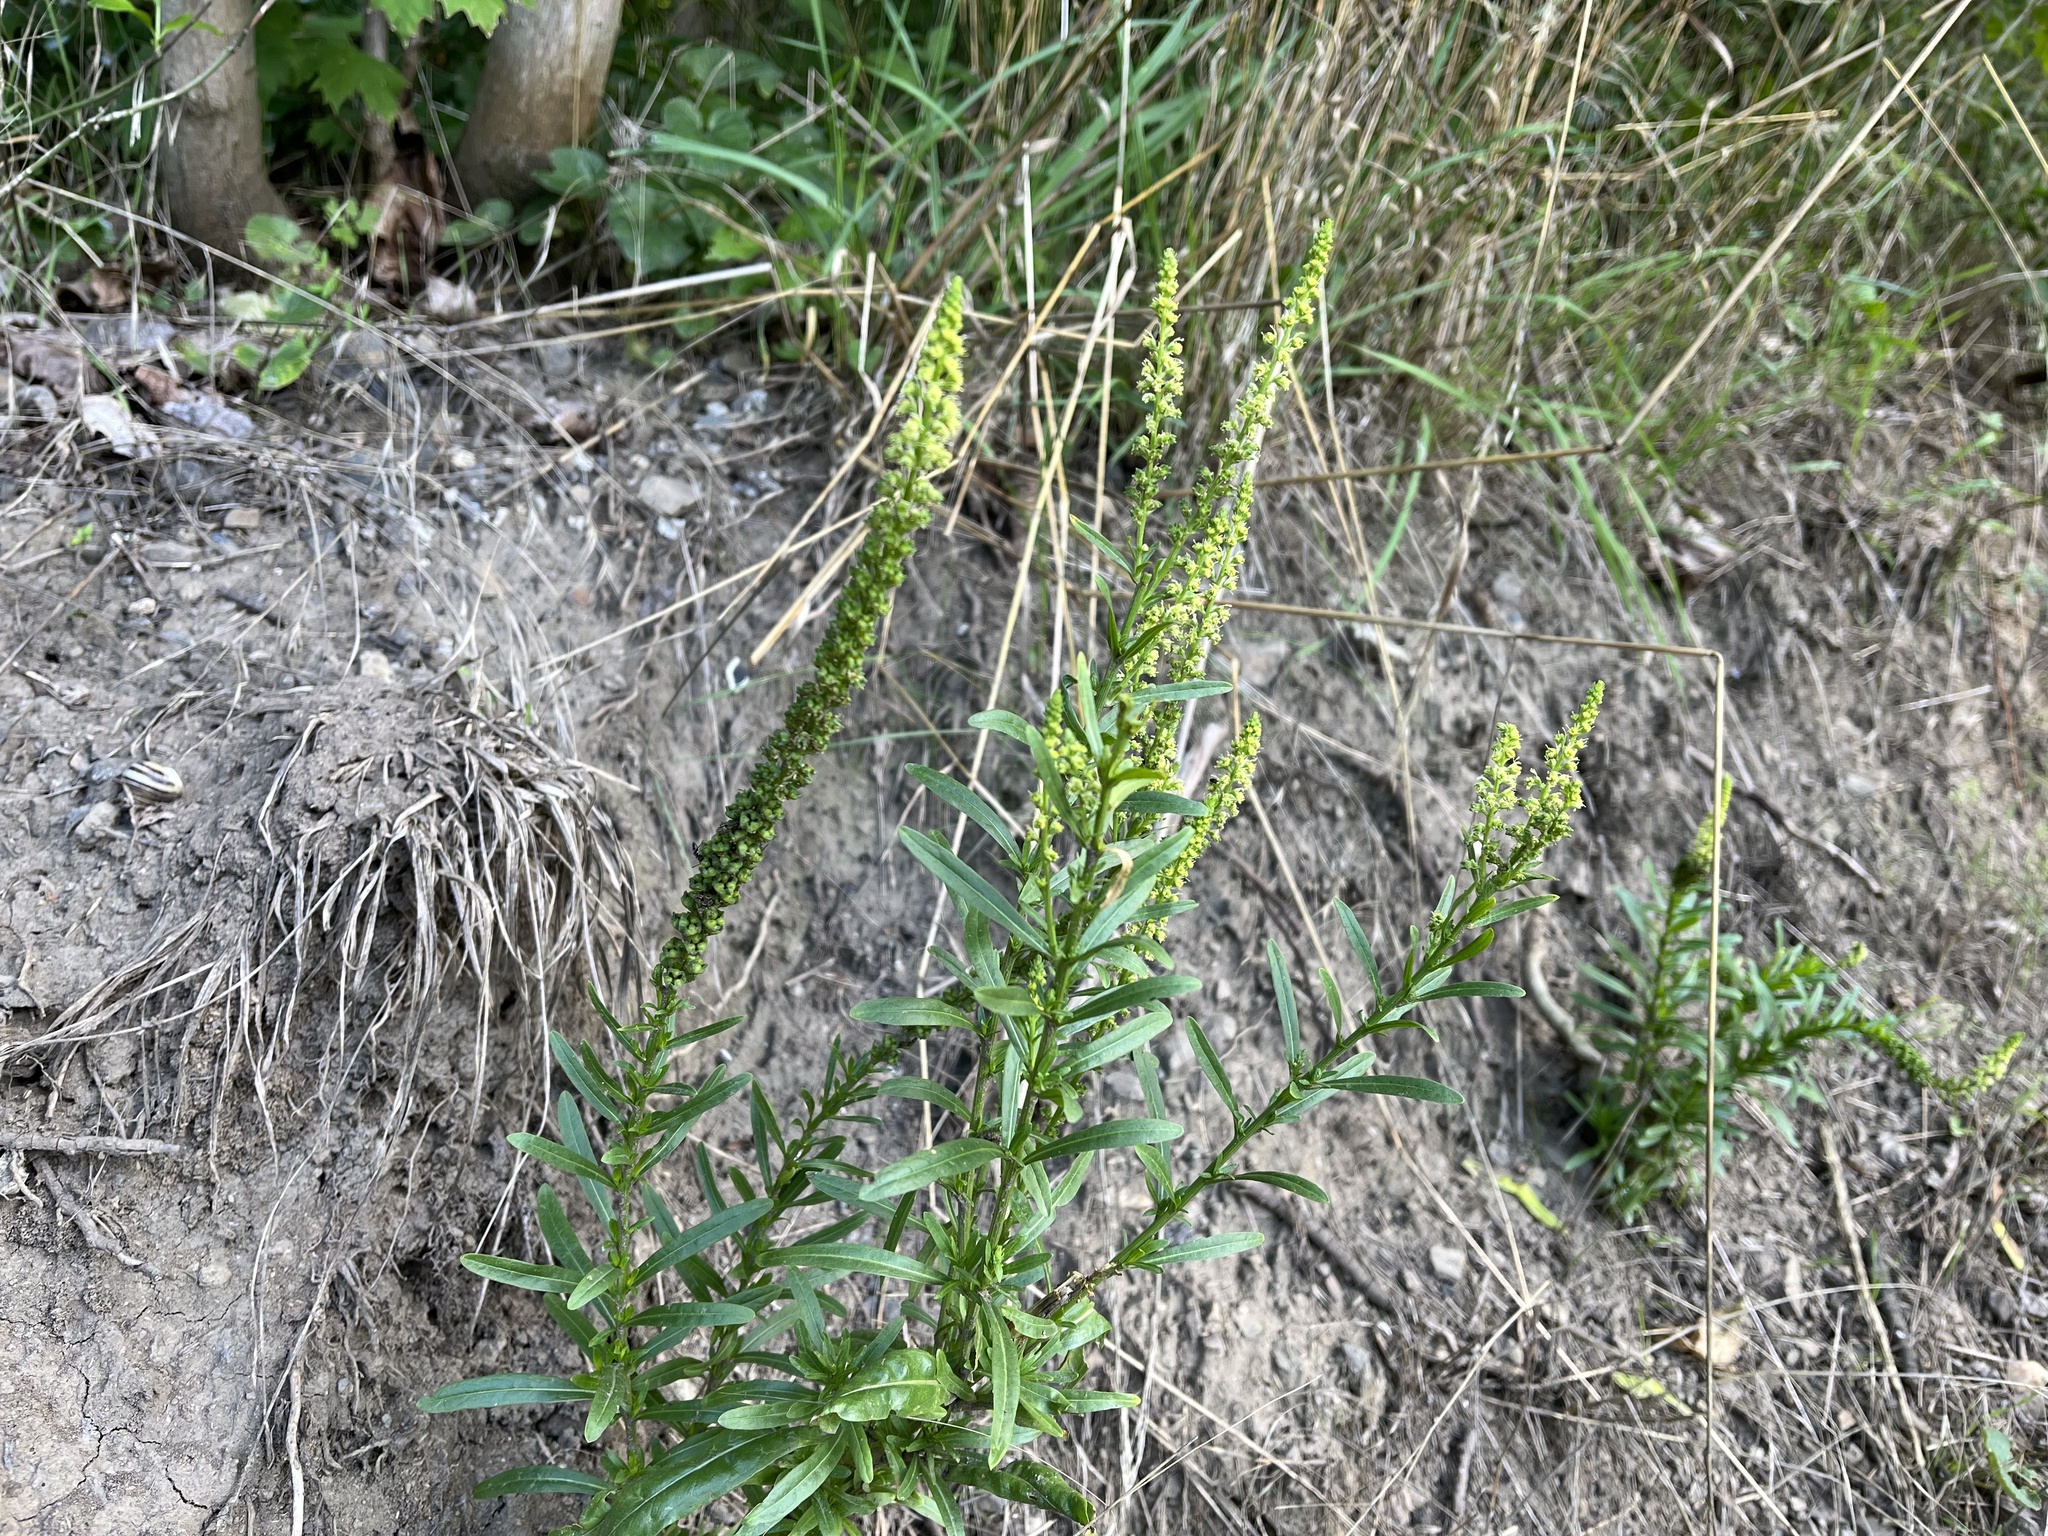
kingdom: Plantae
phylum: Tracheophyta
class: Magnoliopsida
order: Brassicales
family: Resedaceae
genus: Reseda
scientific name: Reseda luteola
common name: Weld
